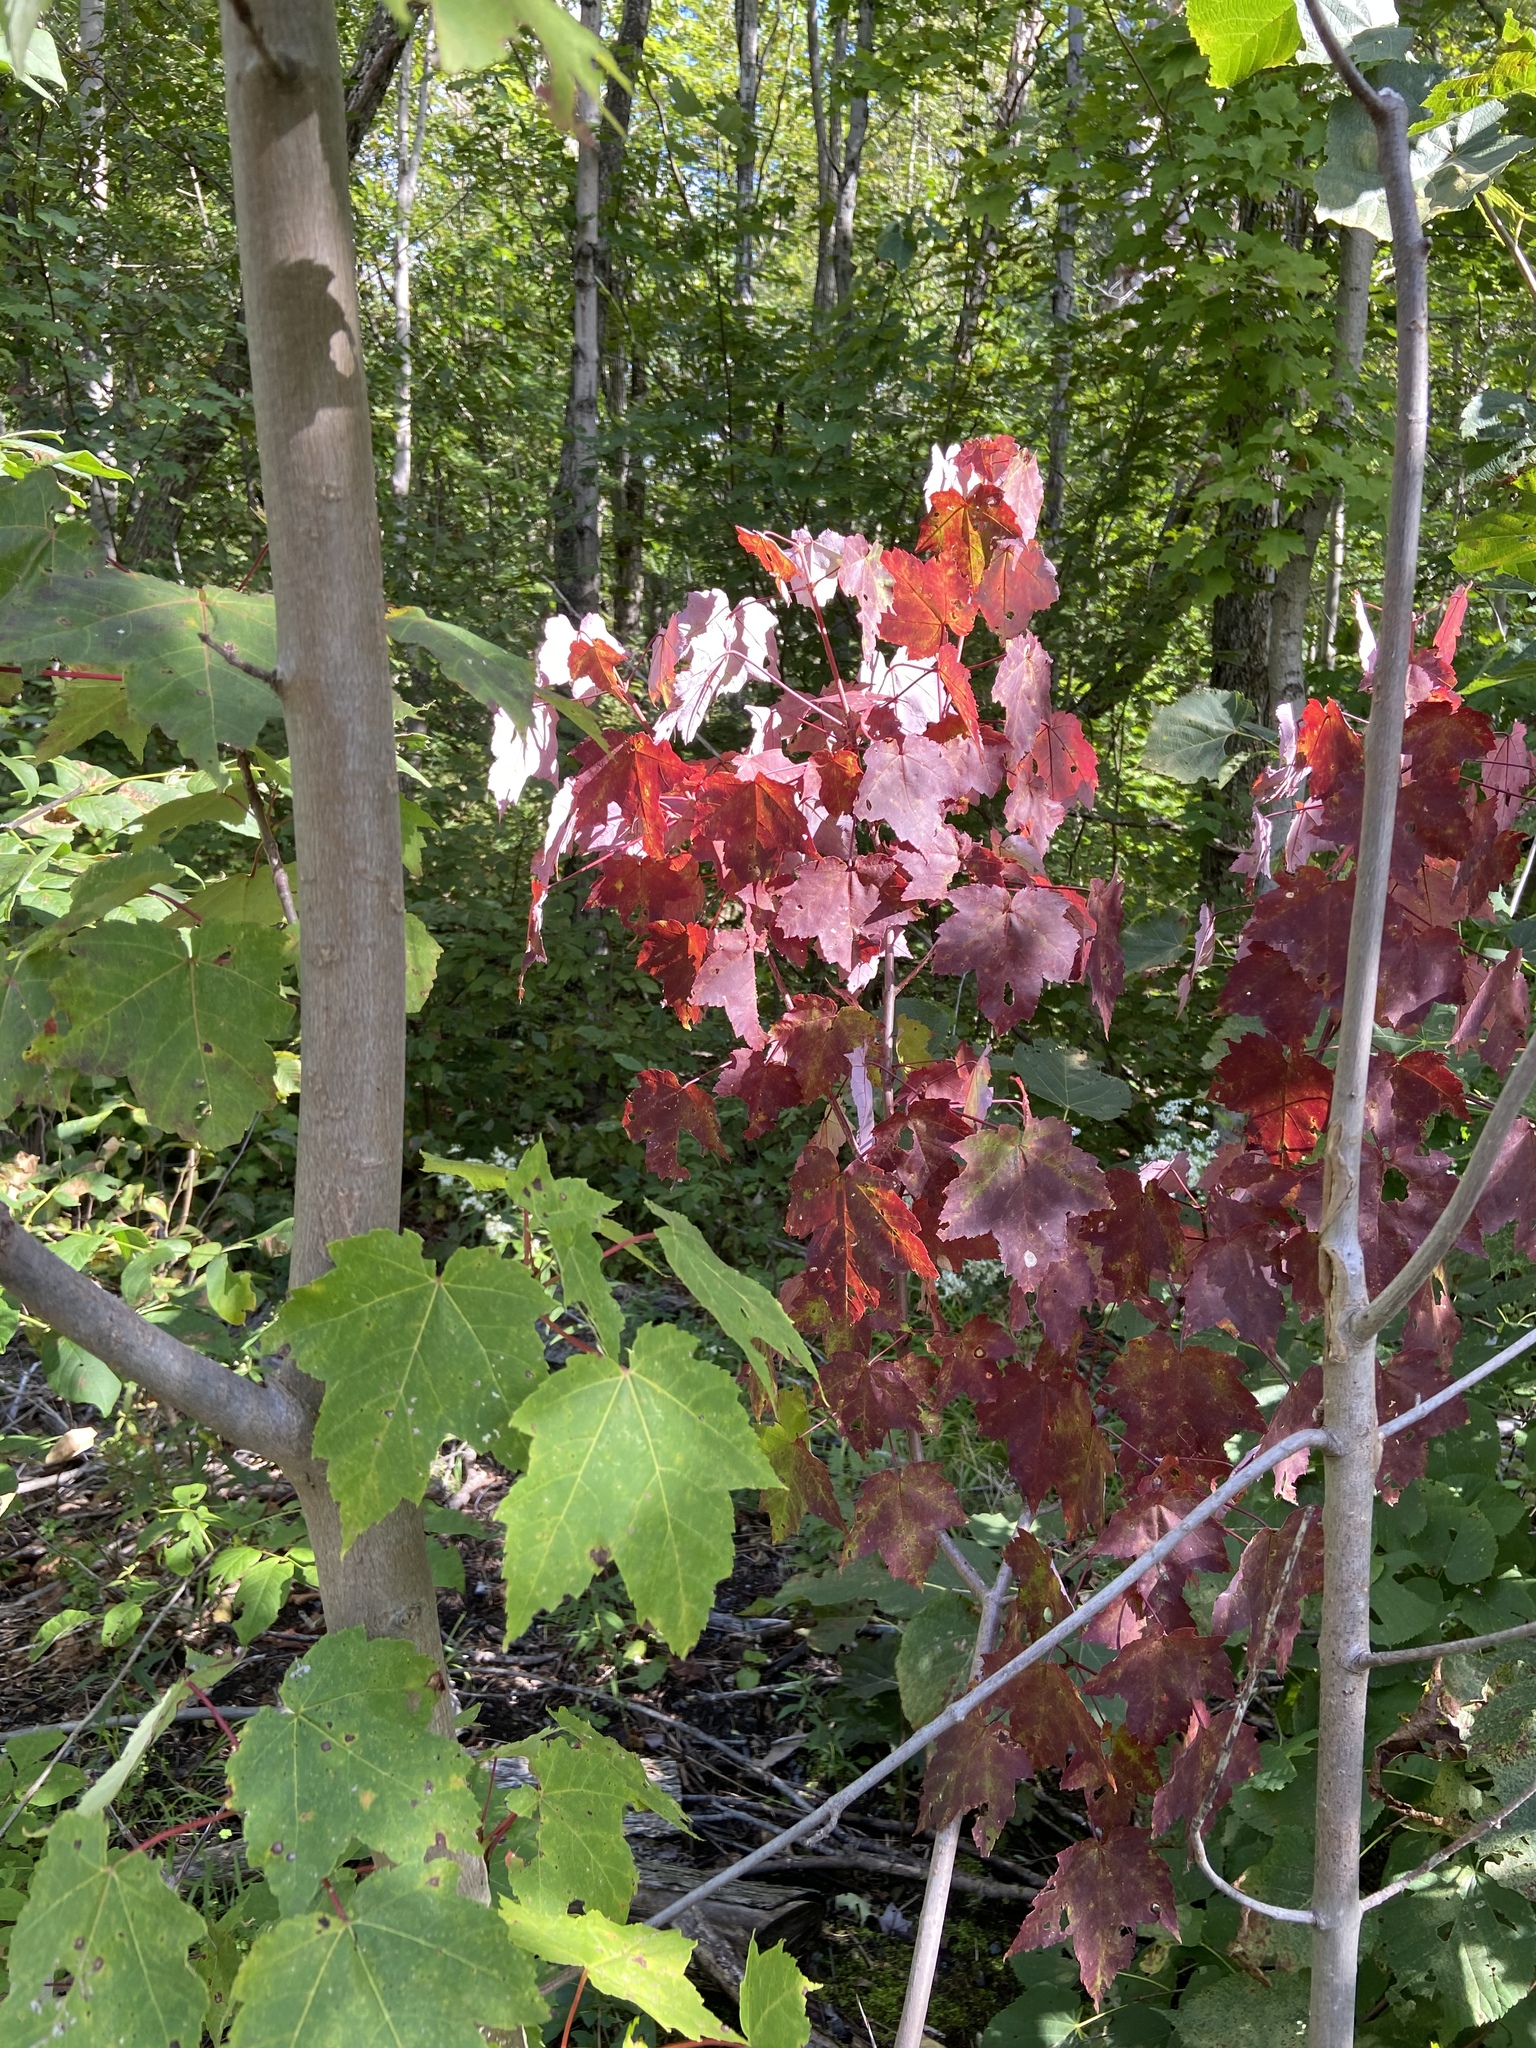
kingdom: Plantae
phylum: Tracheophyta
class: Magnoliopsida
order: Sapindales
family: Sapindaceae
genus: Acer
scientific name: Acer rubrum
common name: Red maple
